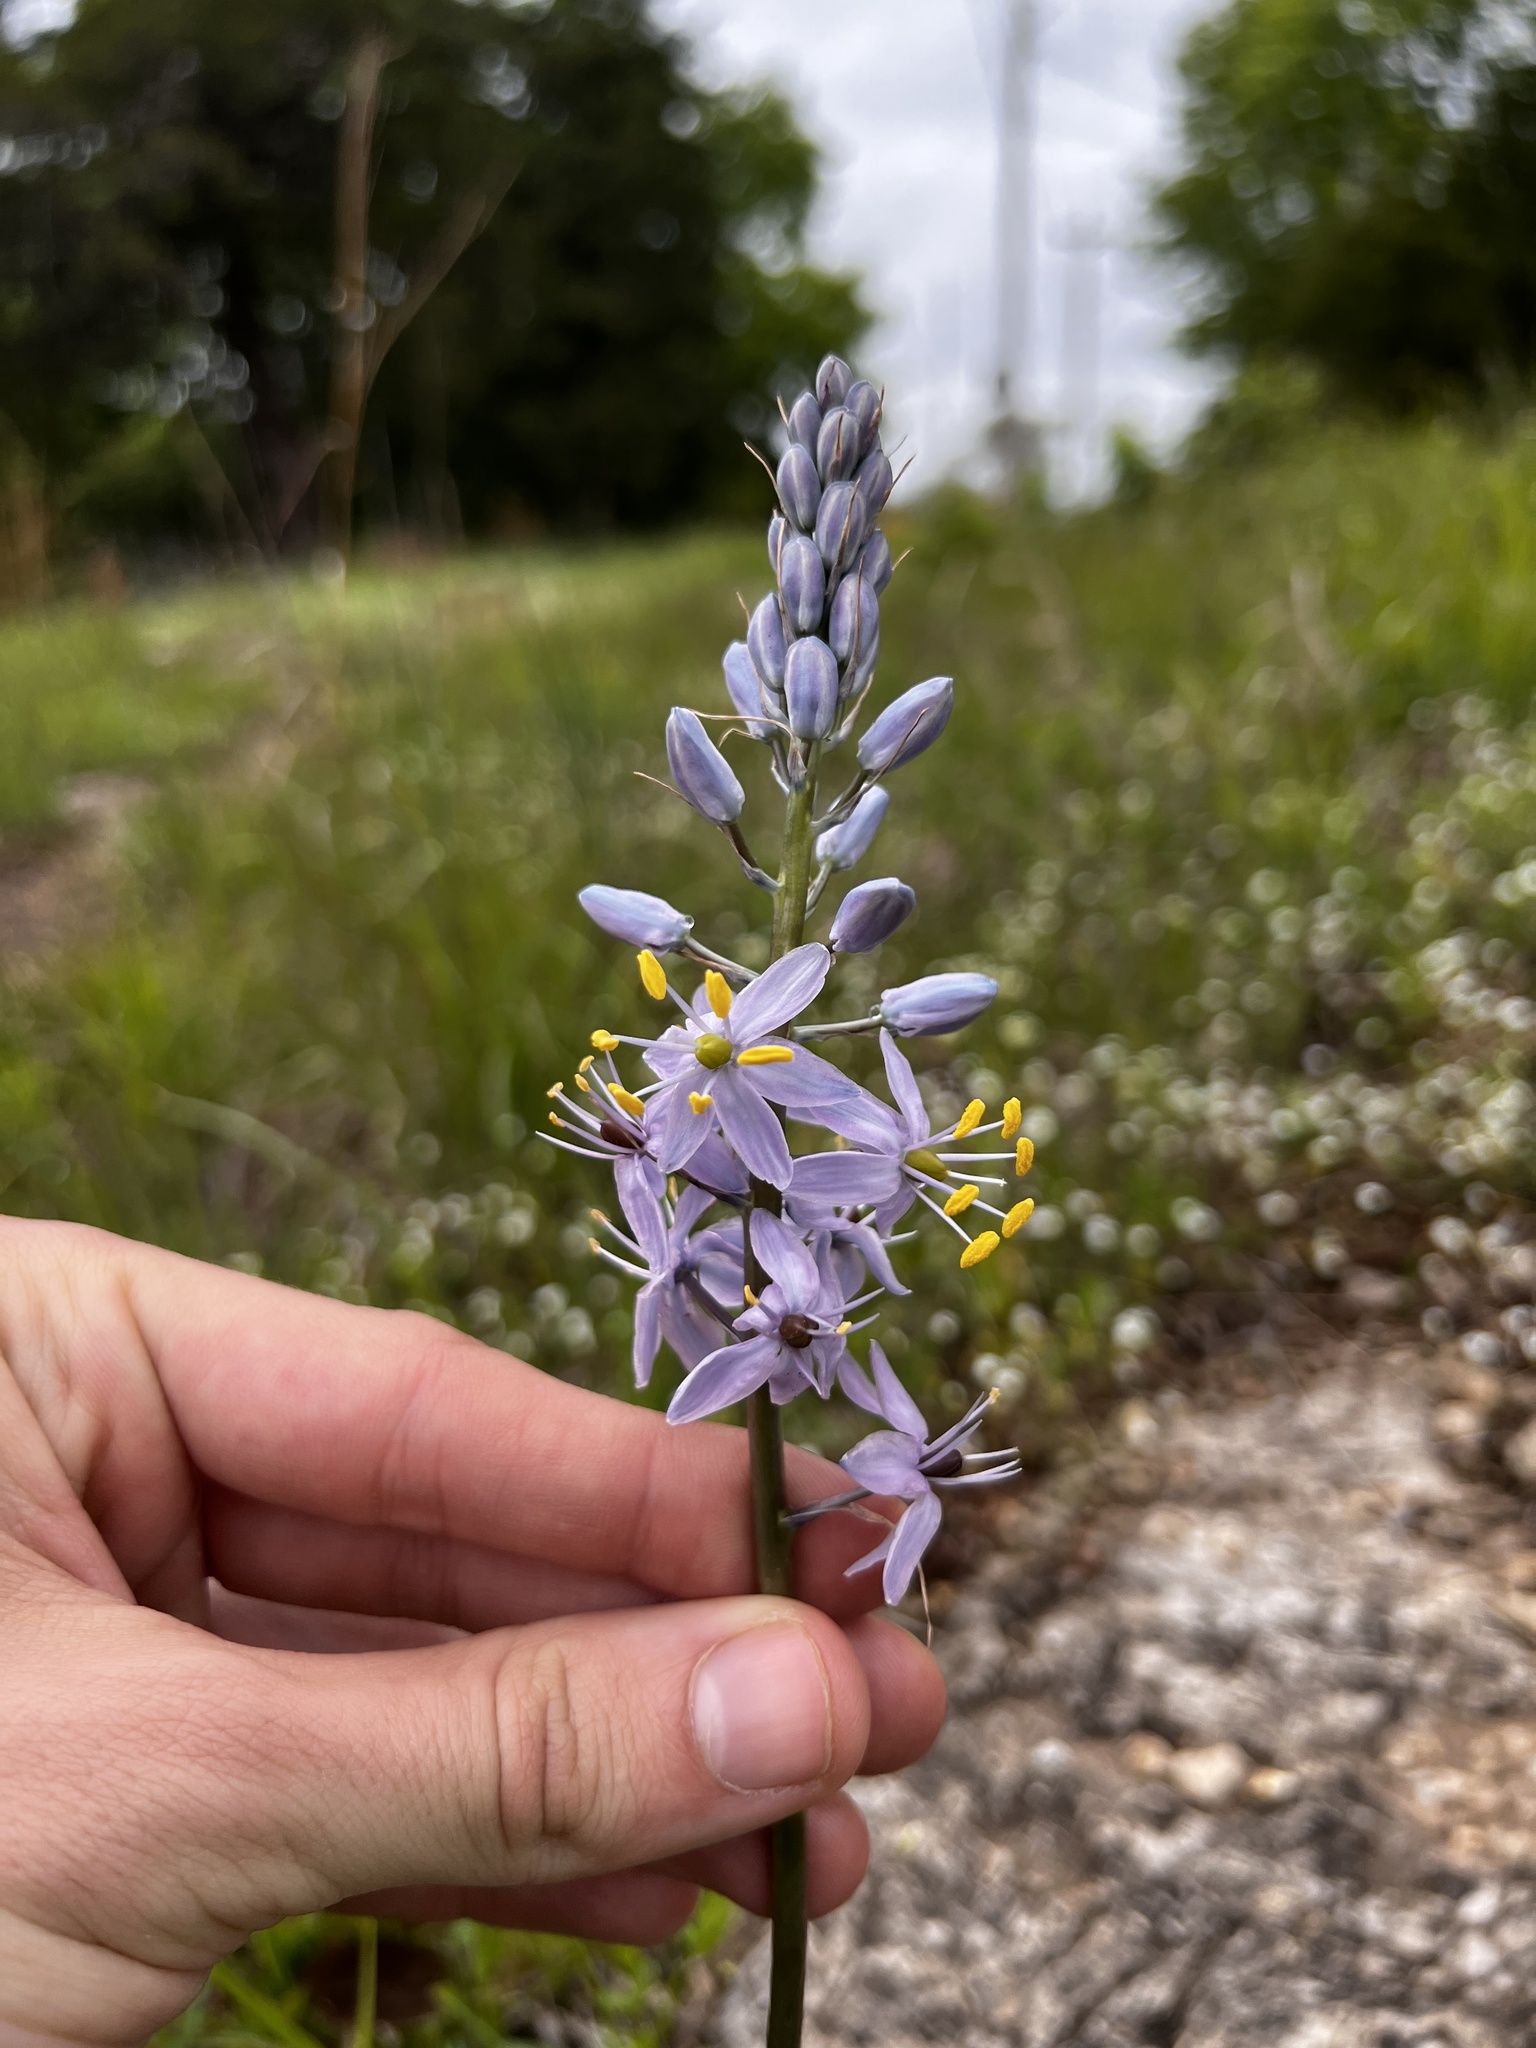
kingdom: Plantae
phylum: Tracheophyta
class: Liliopsida
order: Asparagales
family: Asparagaceae
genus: Camassia
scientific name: Camassia scilloides
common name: Wild hyacinth
